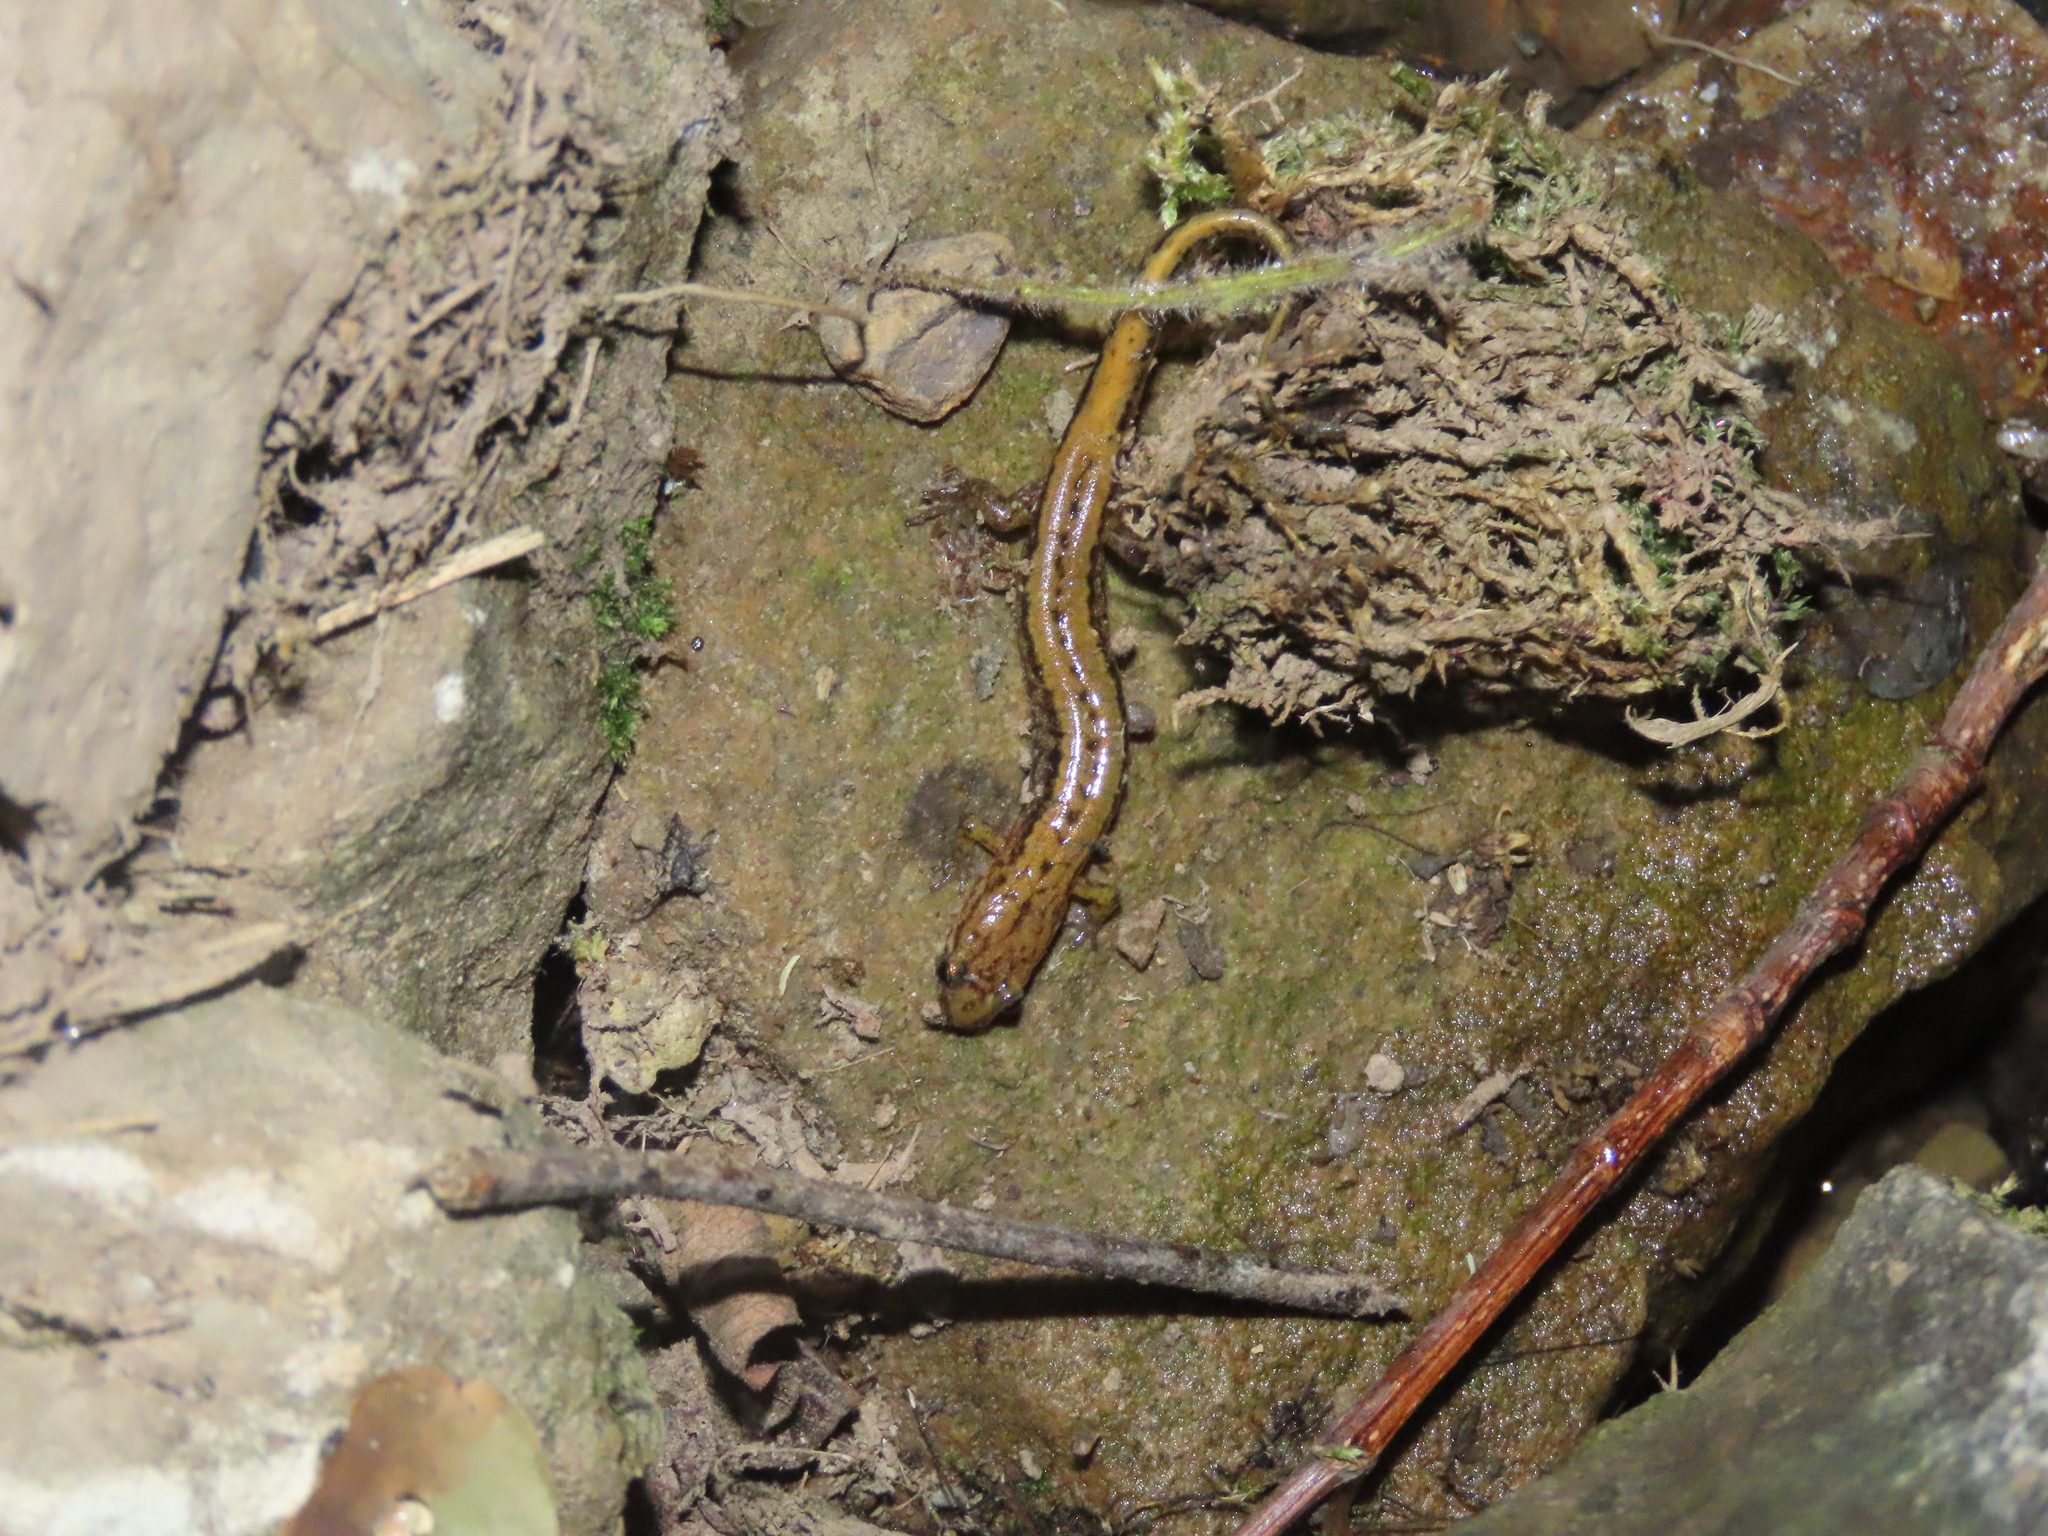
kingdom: Animalia
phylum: Chordata
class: Amphibia
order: Caudata
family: Plethodontidae
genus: Desmognathus
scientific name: Desmognathus ochrophaeus
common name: Allegheny mountain dusky salamander
